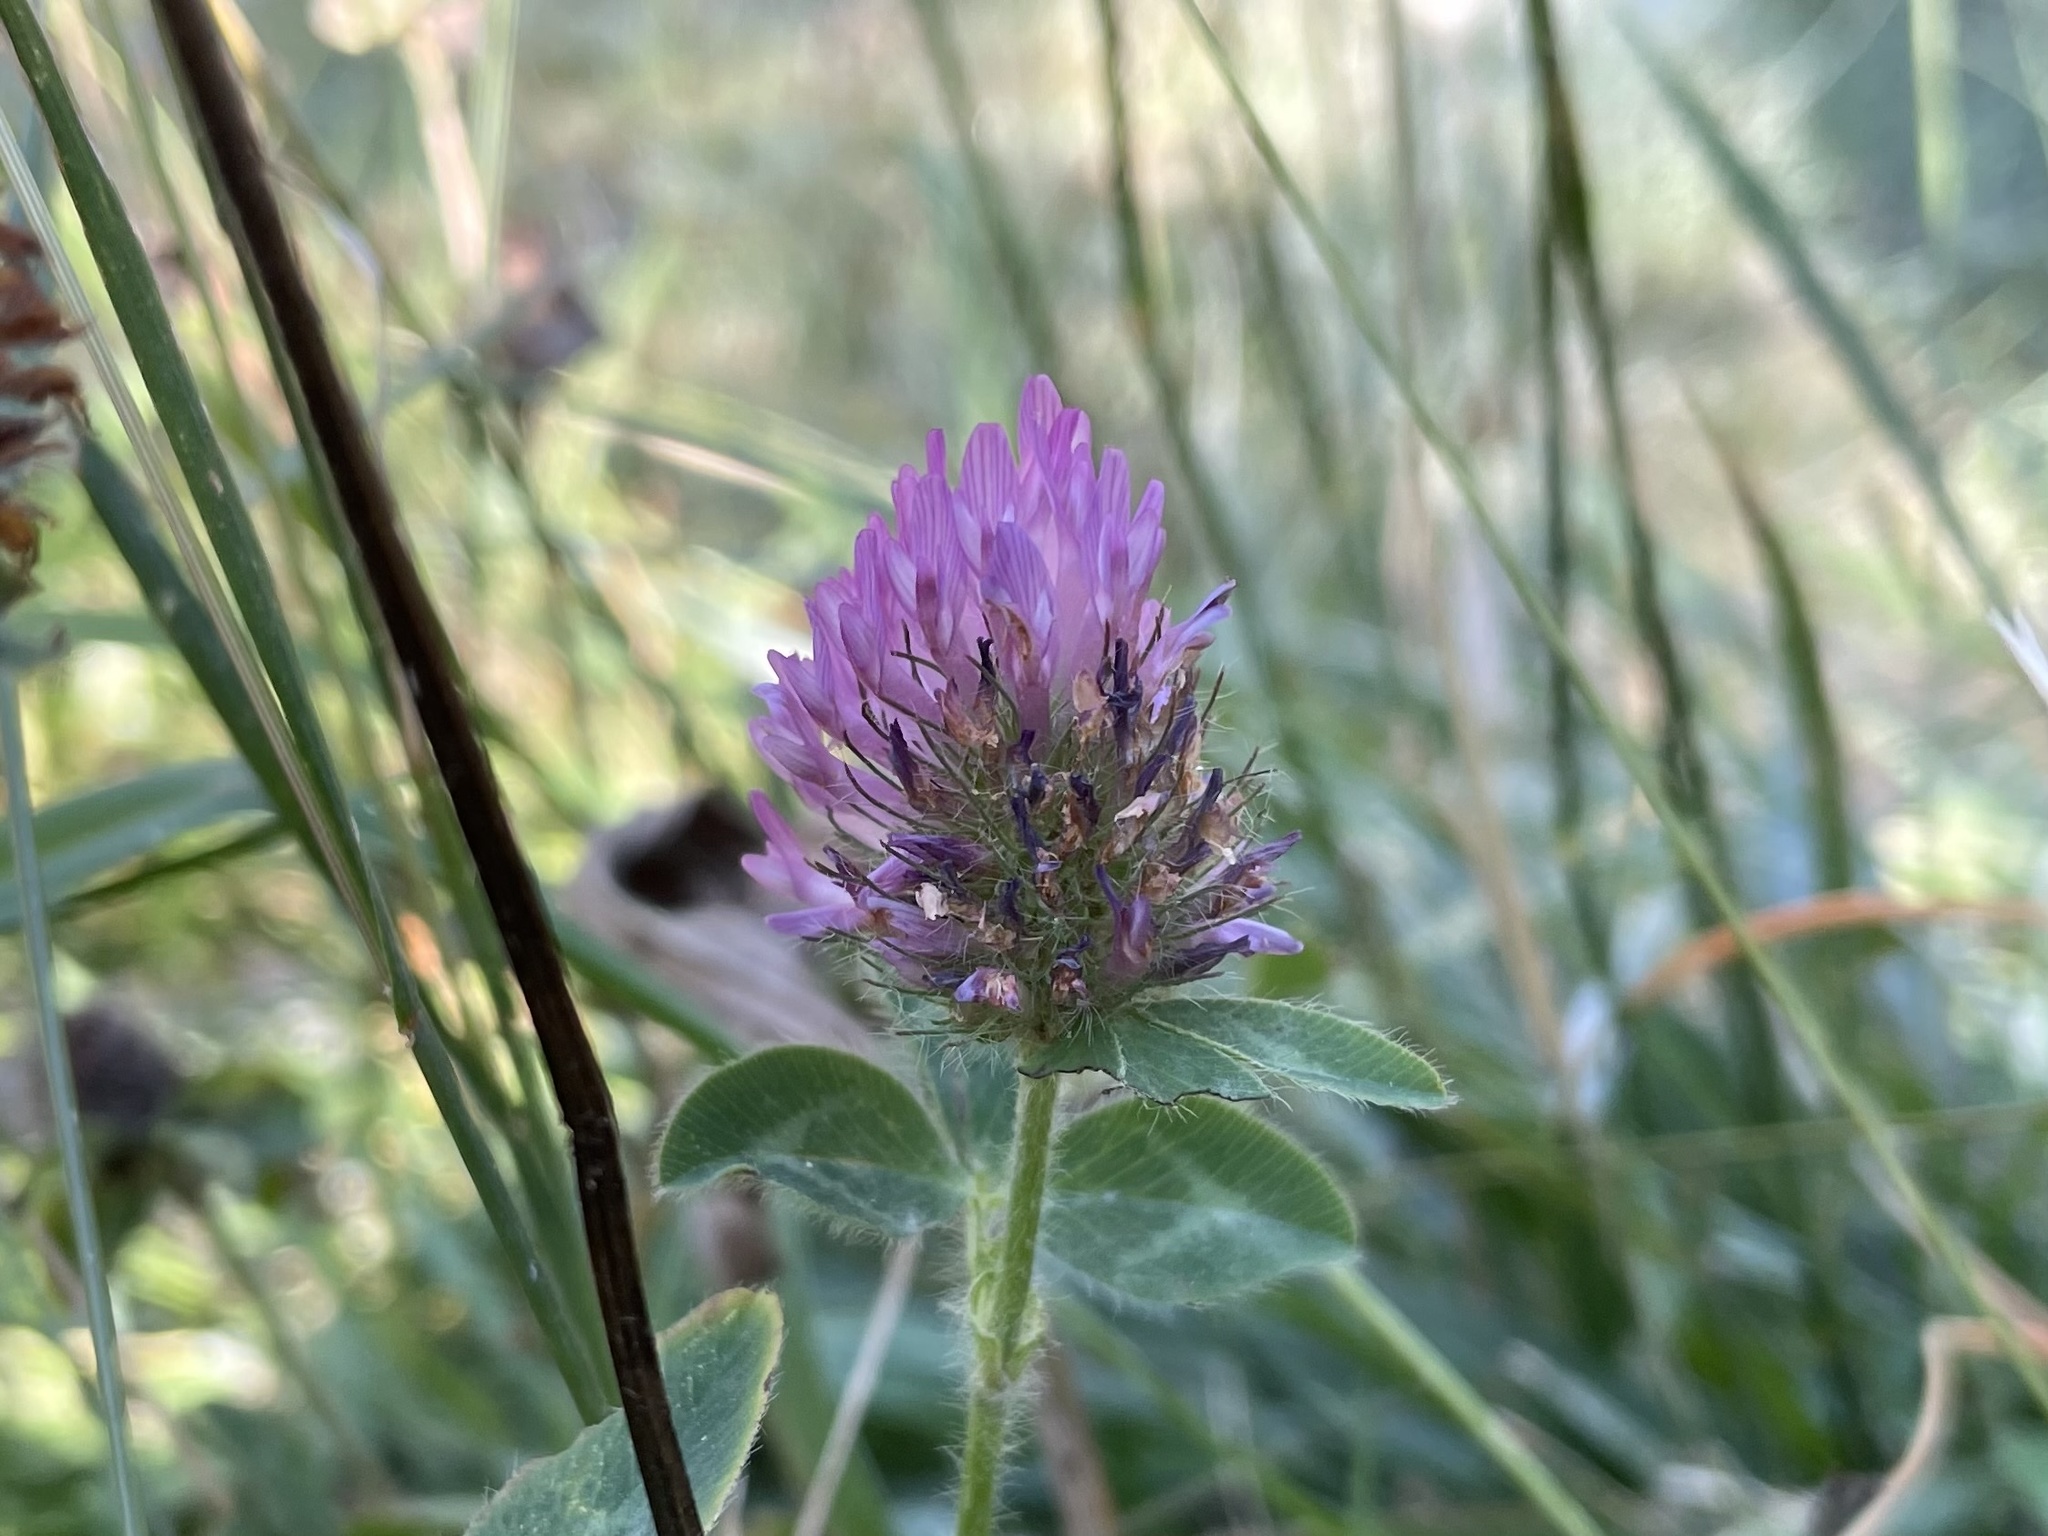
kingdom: Plantae
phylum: Tracheophyta
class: Magnoliopsida
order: Fabales
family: Fabaceae
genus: Trifolium
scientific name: Trifolium pratense
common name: Red clover
